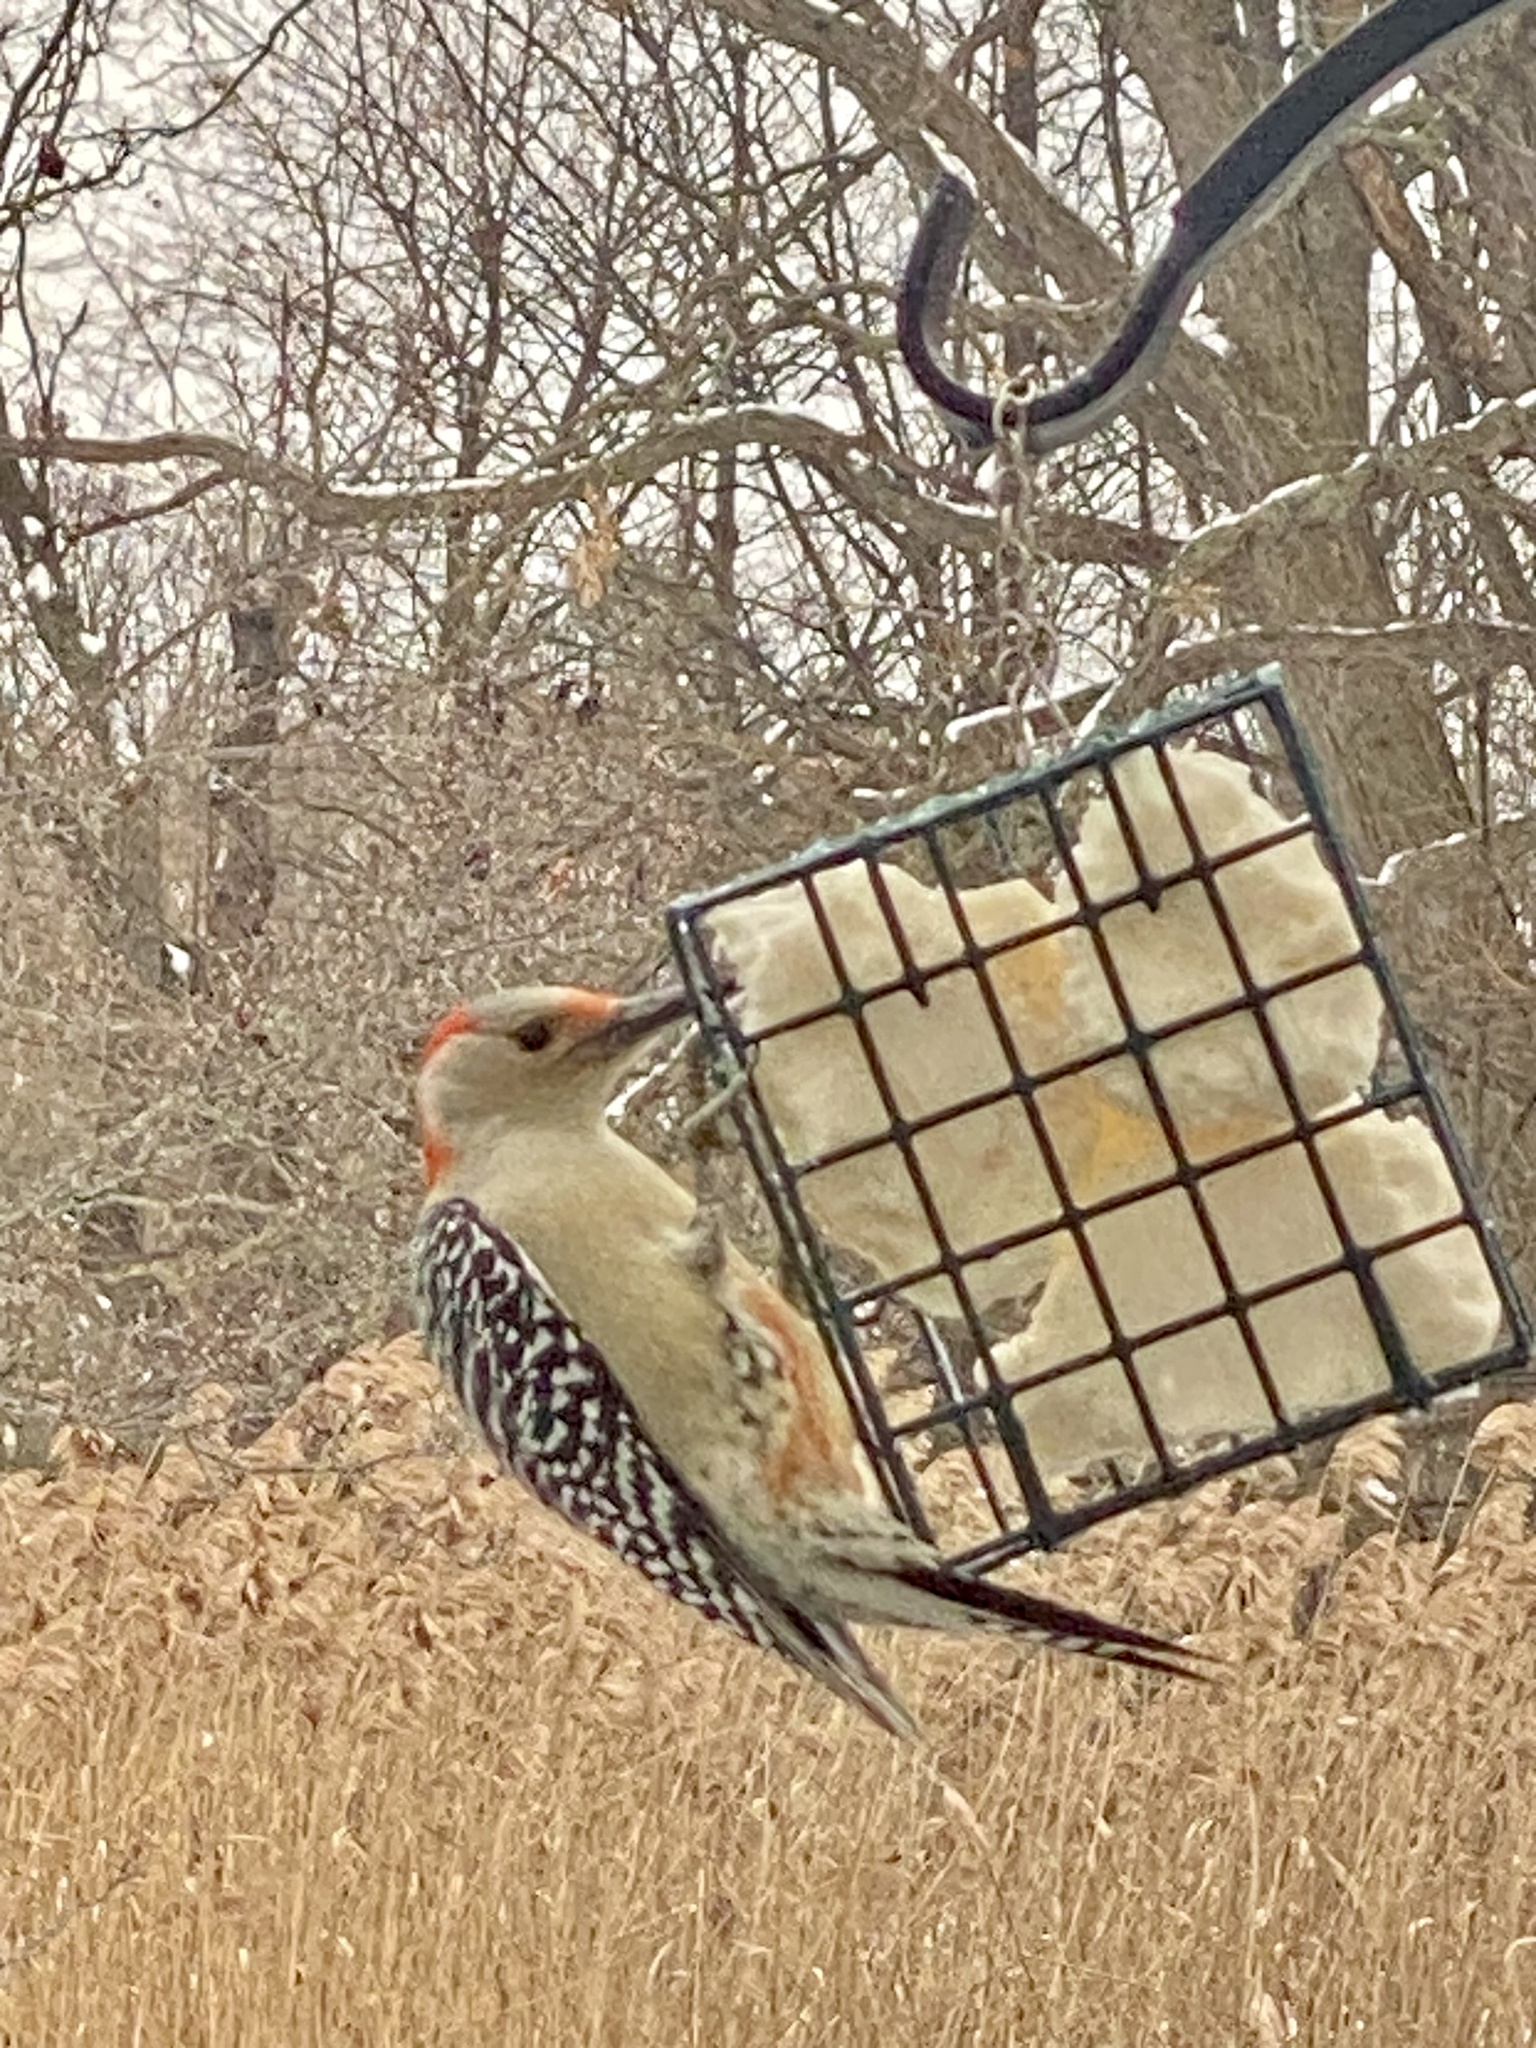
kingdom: Animalia
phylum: Chordata
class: Aves
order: Piciformes
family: Picidae
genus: Melanerpes
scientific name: Melanerpes carolinus
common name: Red-bellied woodpecker
